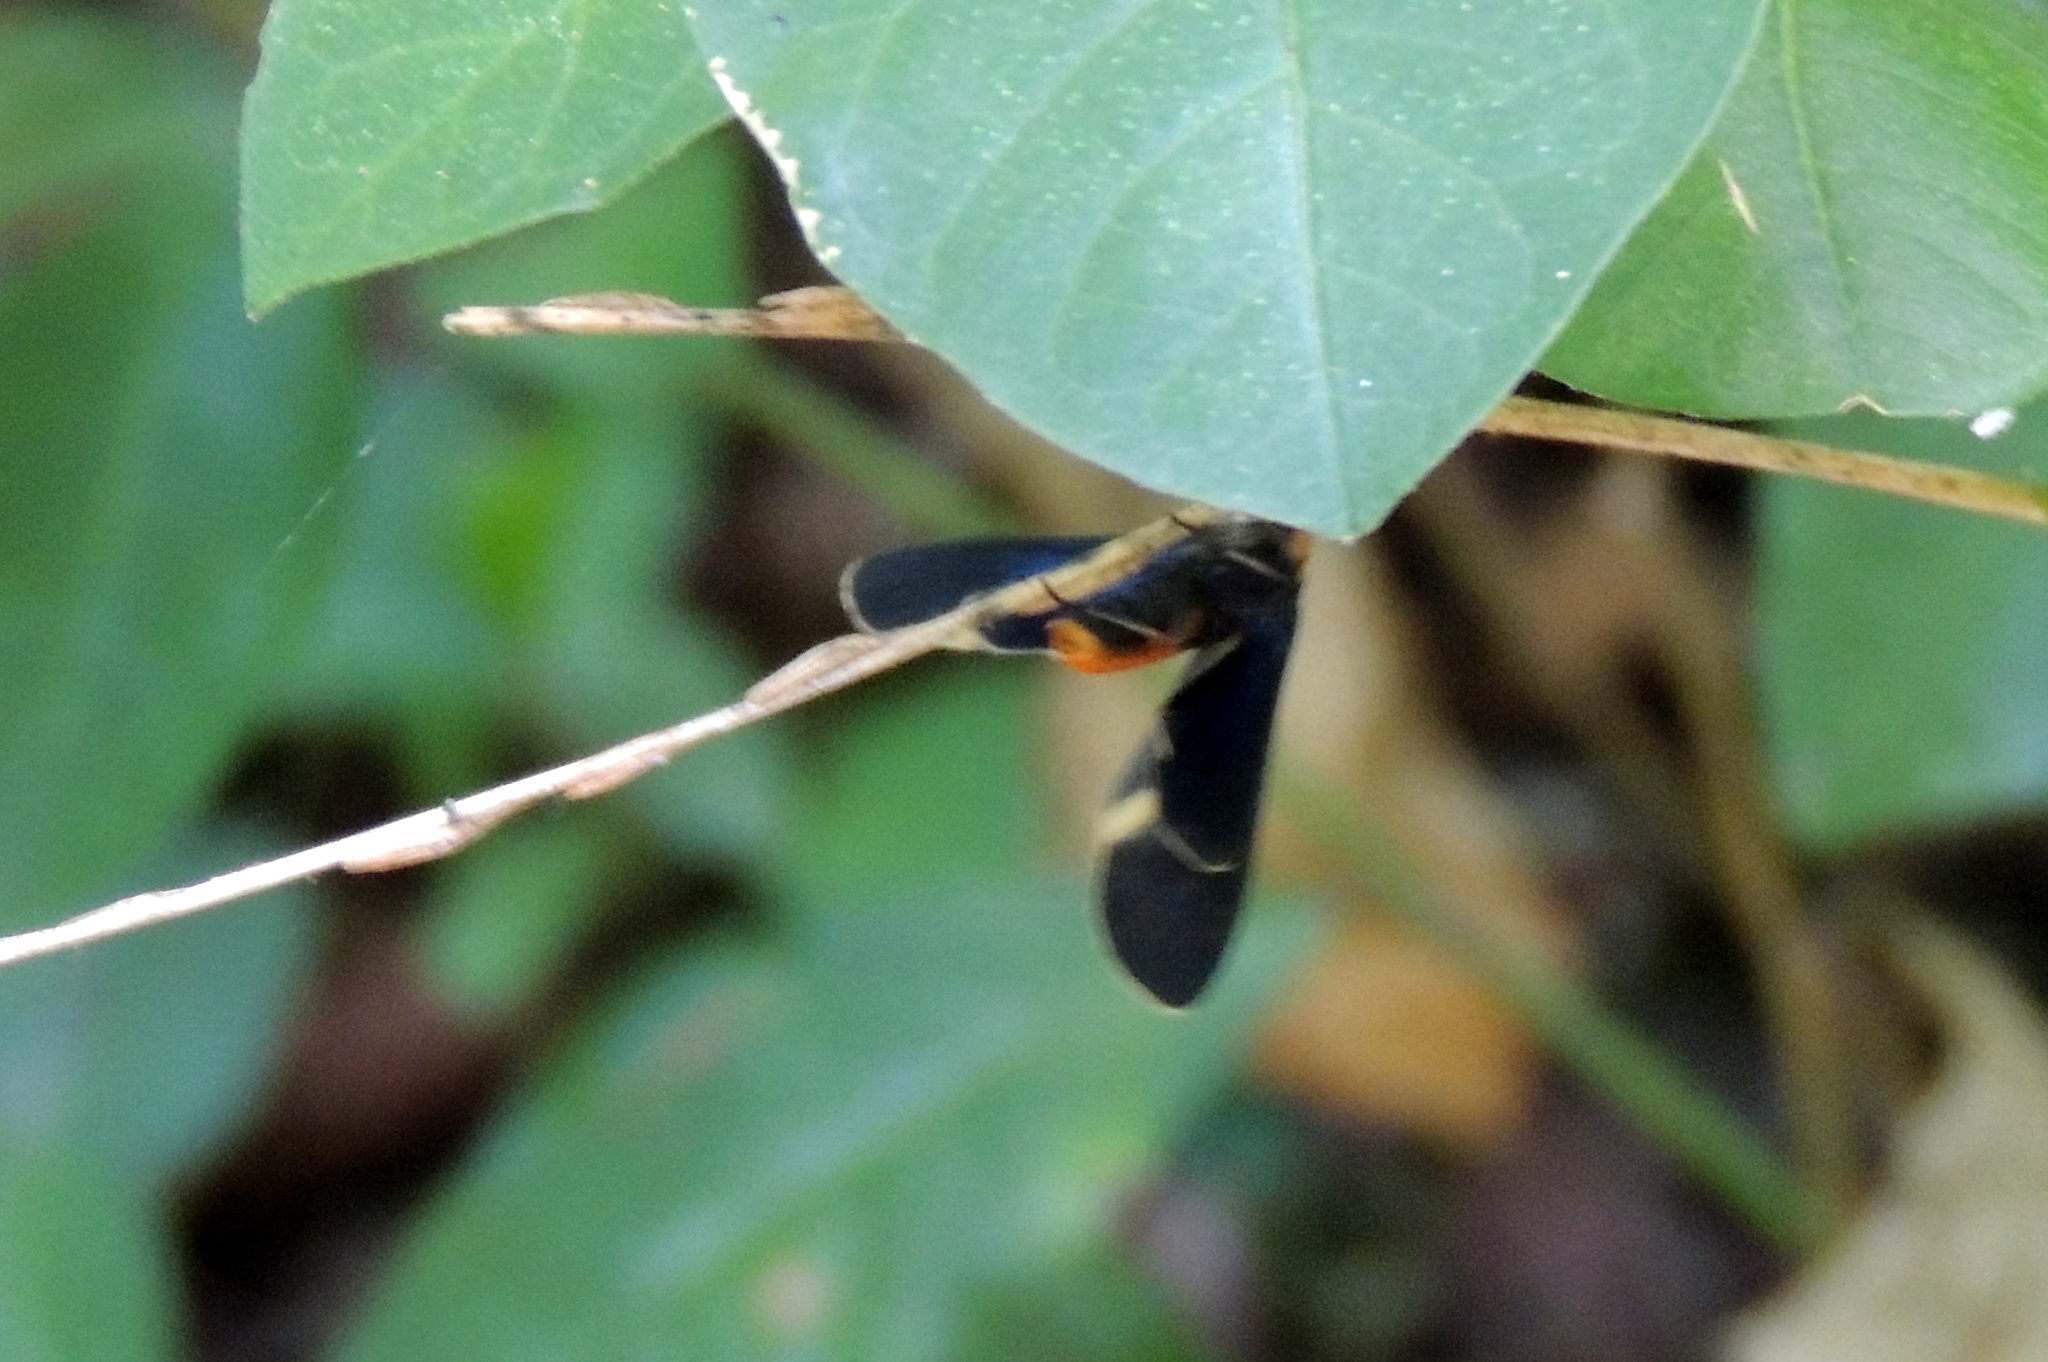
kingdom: Animalia
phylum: Arthropoda
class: Insecta
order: Lepidoptera
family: Erebidae
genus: Dahana
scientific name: Dahana atripennis
